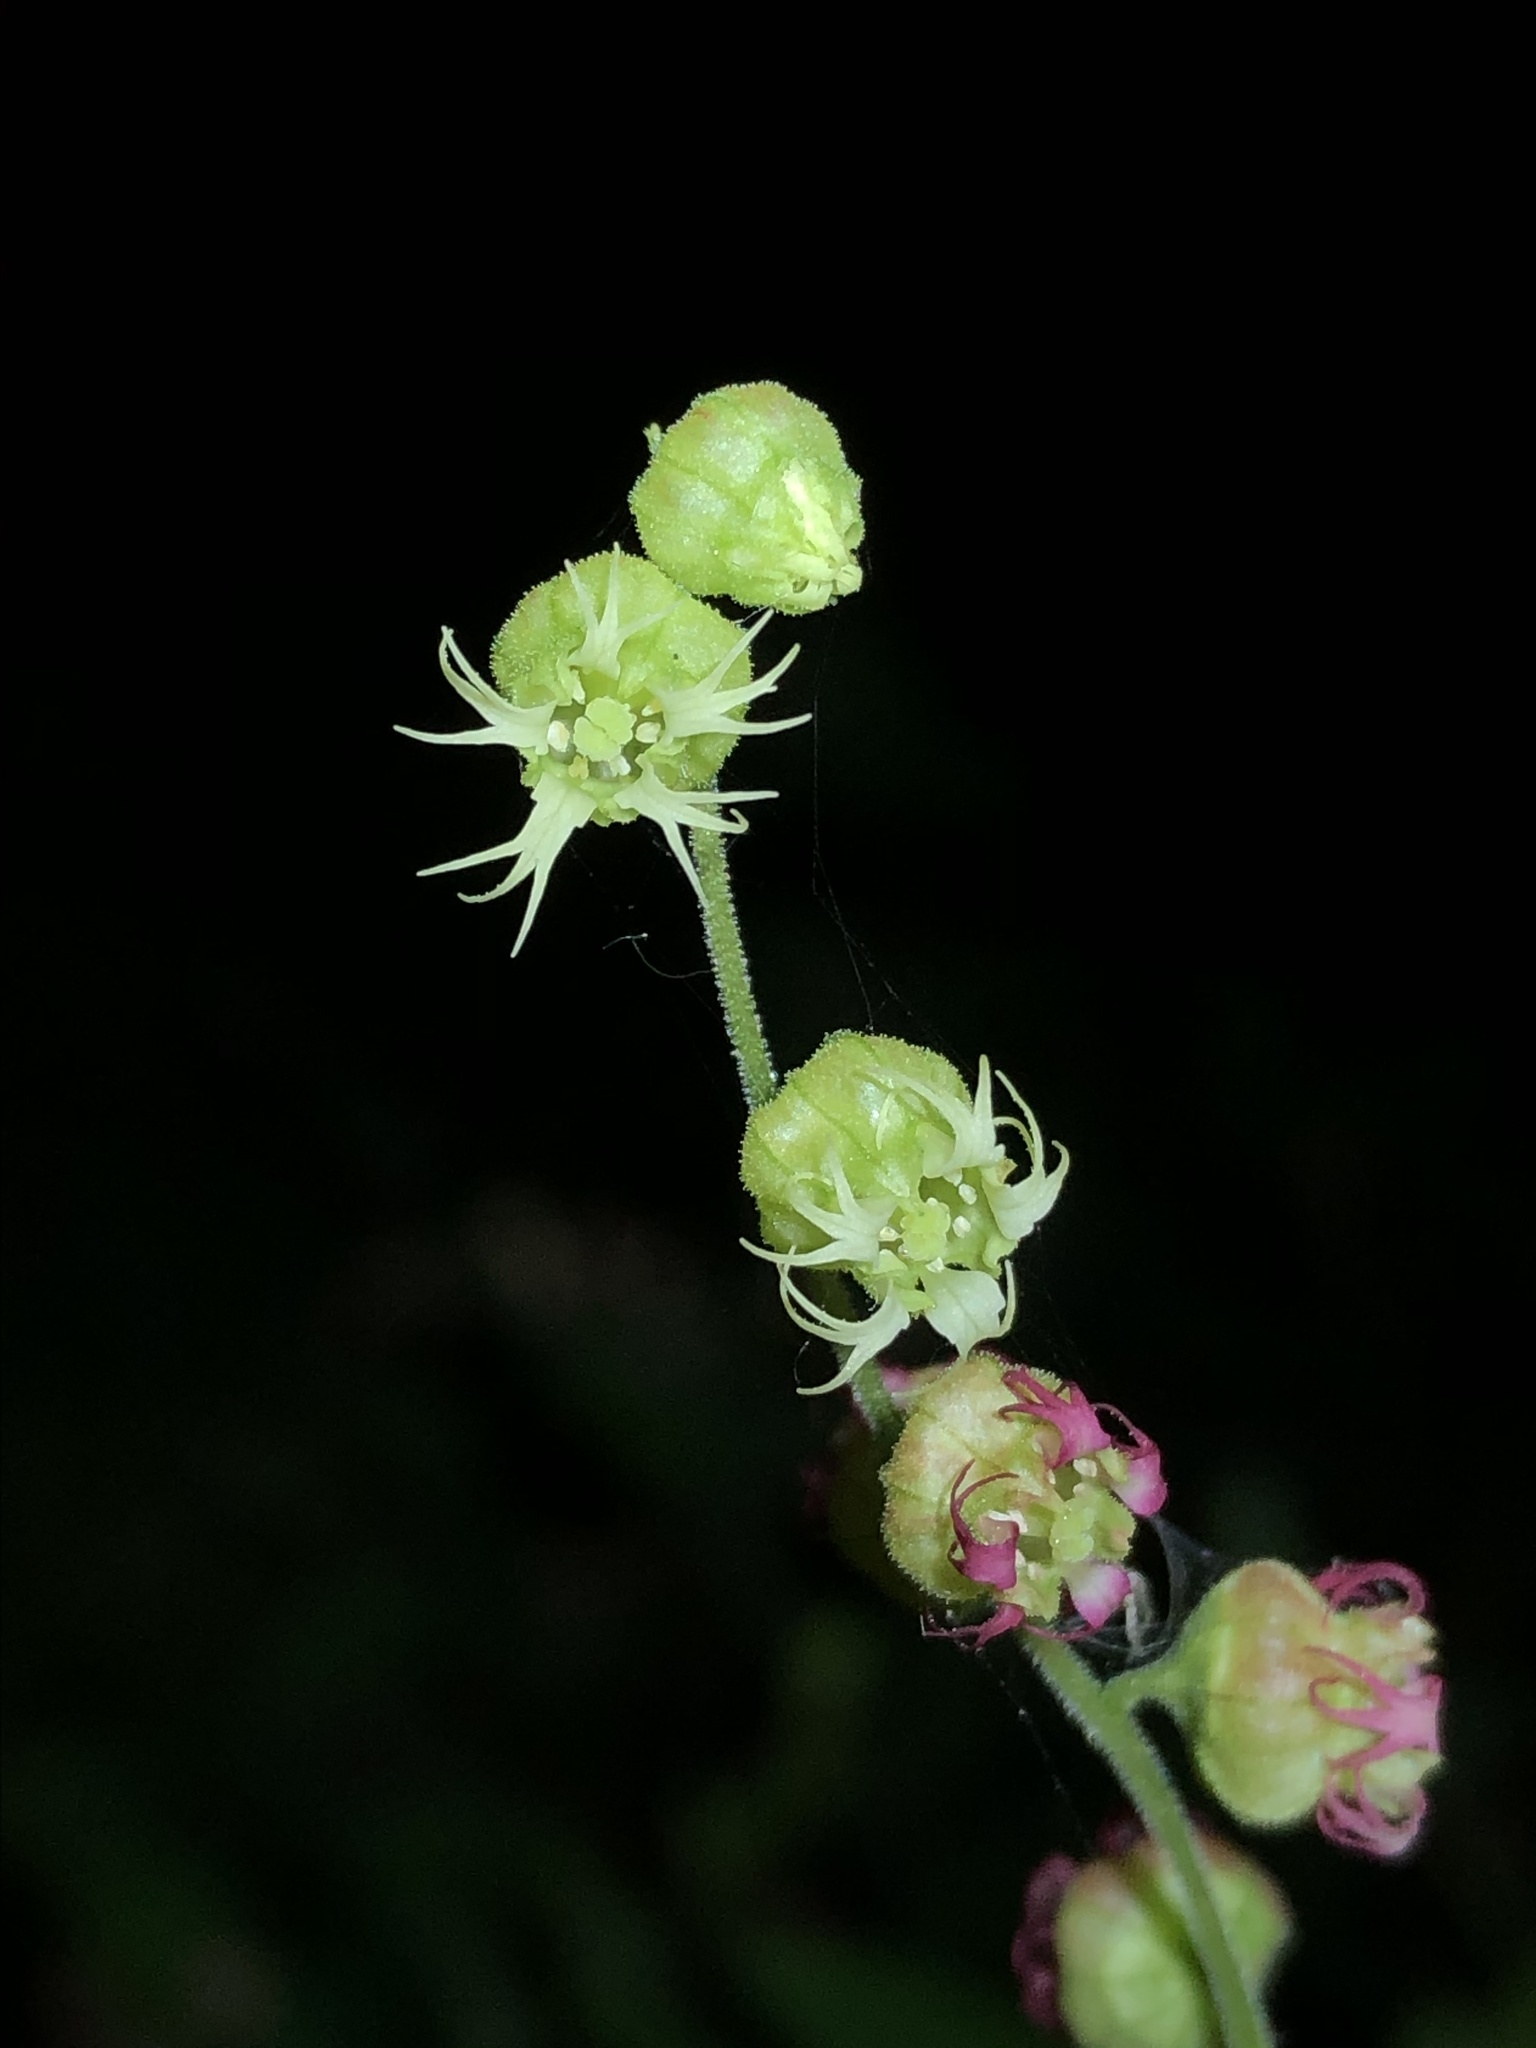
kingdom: Plantae
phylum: Tracheophyta
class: Magnoliopsida
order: Saxifragales
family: Saxifragaceae
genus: Tellima
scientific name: Tellima grandiflora
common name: Fringecups
